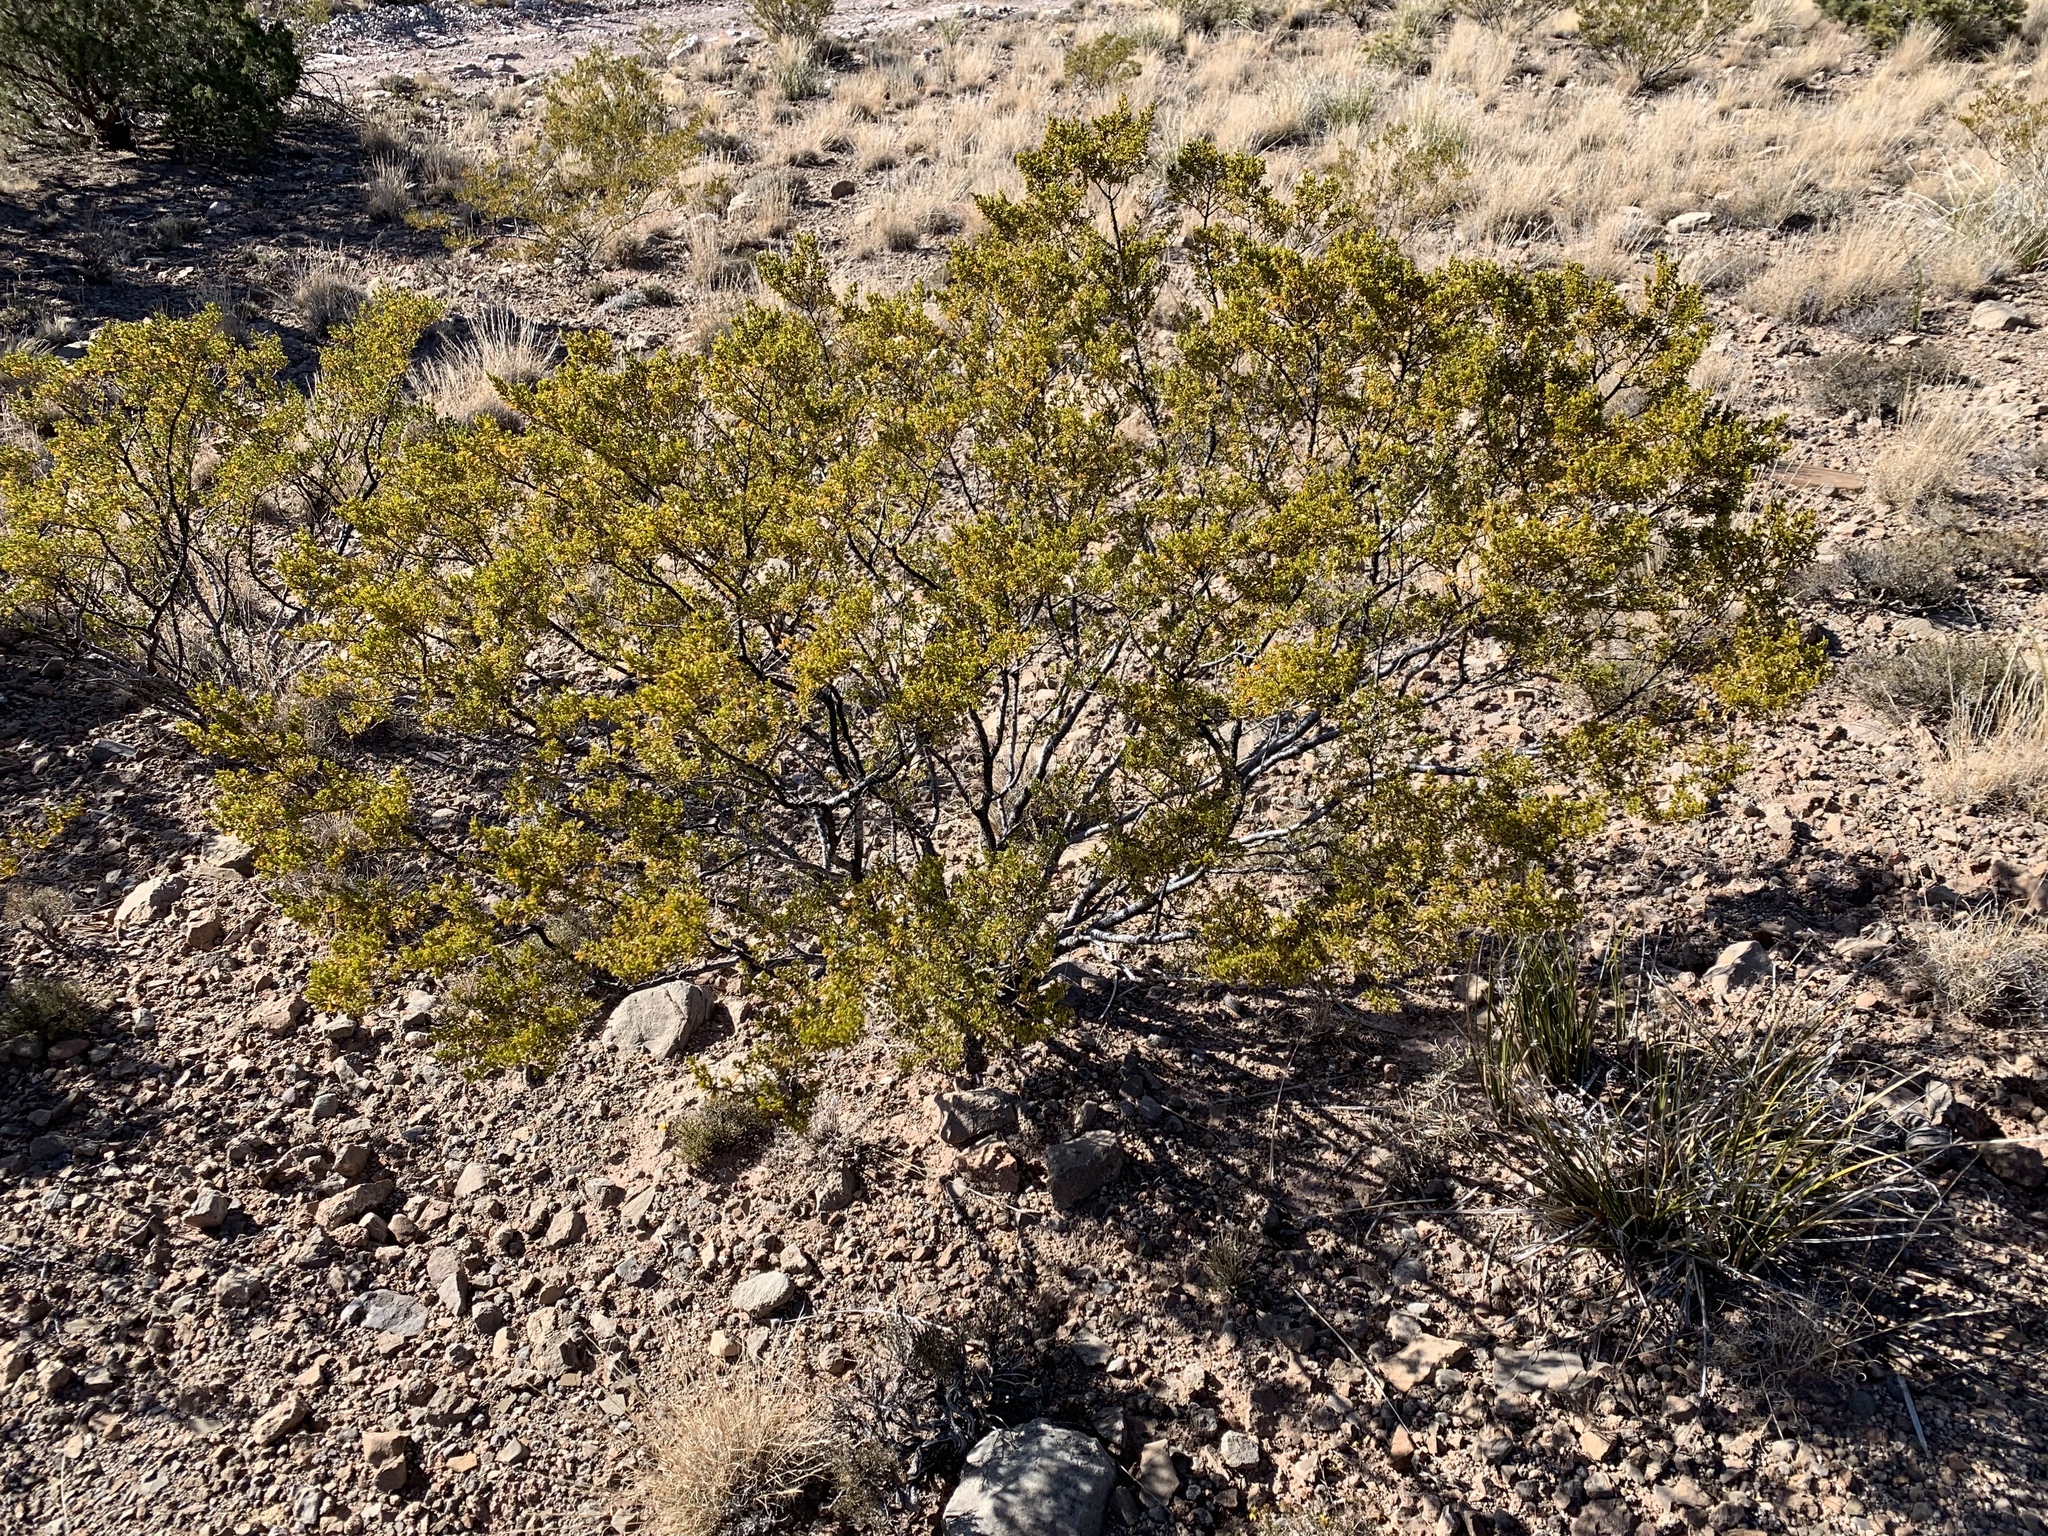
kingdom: Plantae
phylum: Tracheophyta
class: Magnoliopsida
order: Zygophyllales
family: Zygophyllaceae
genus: Larrea
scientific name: Larrea tridentata
